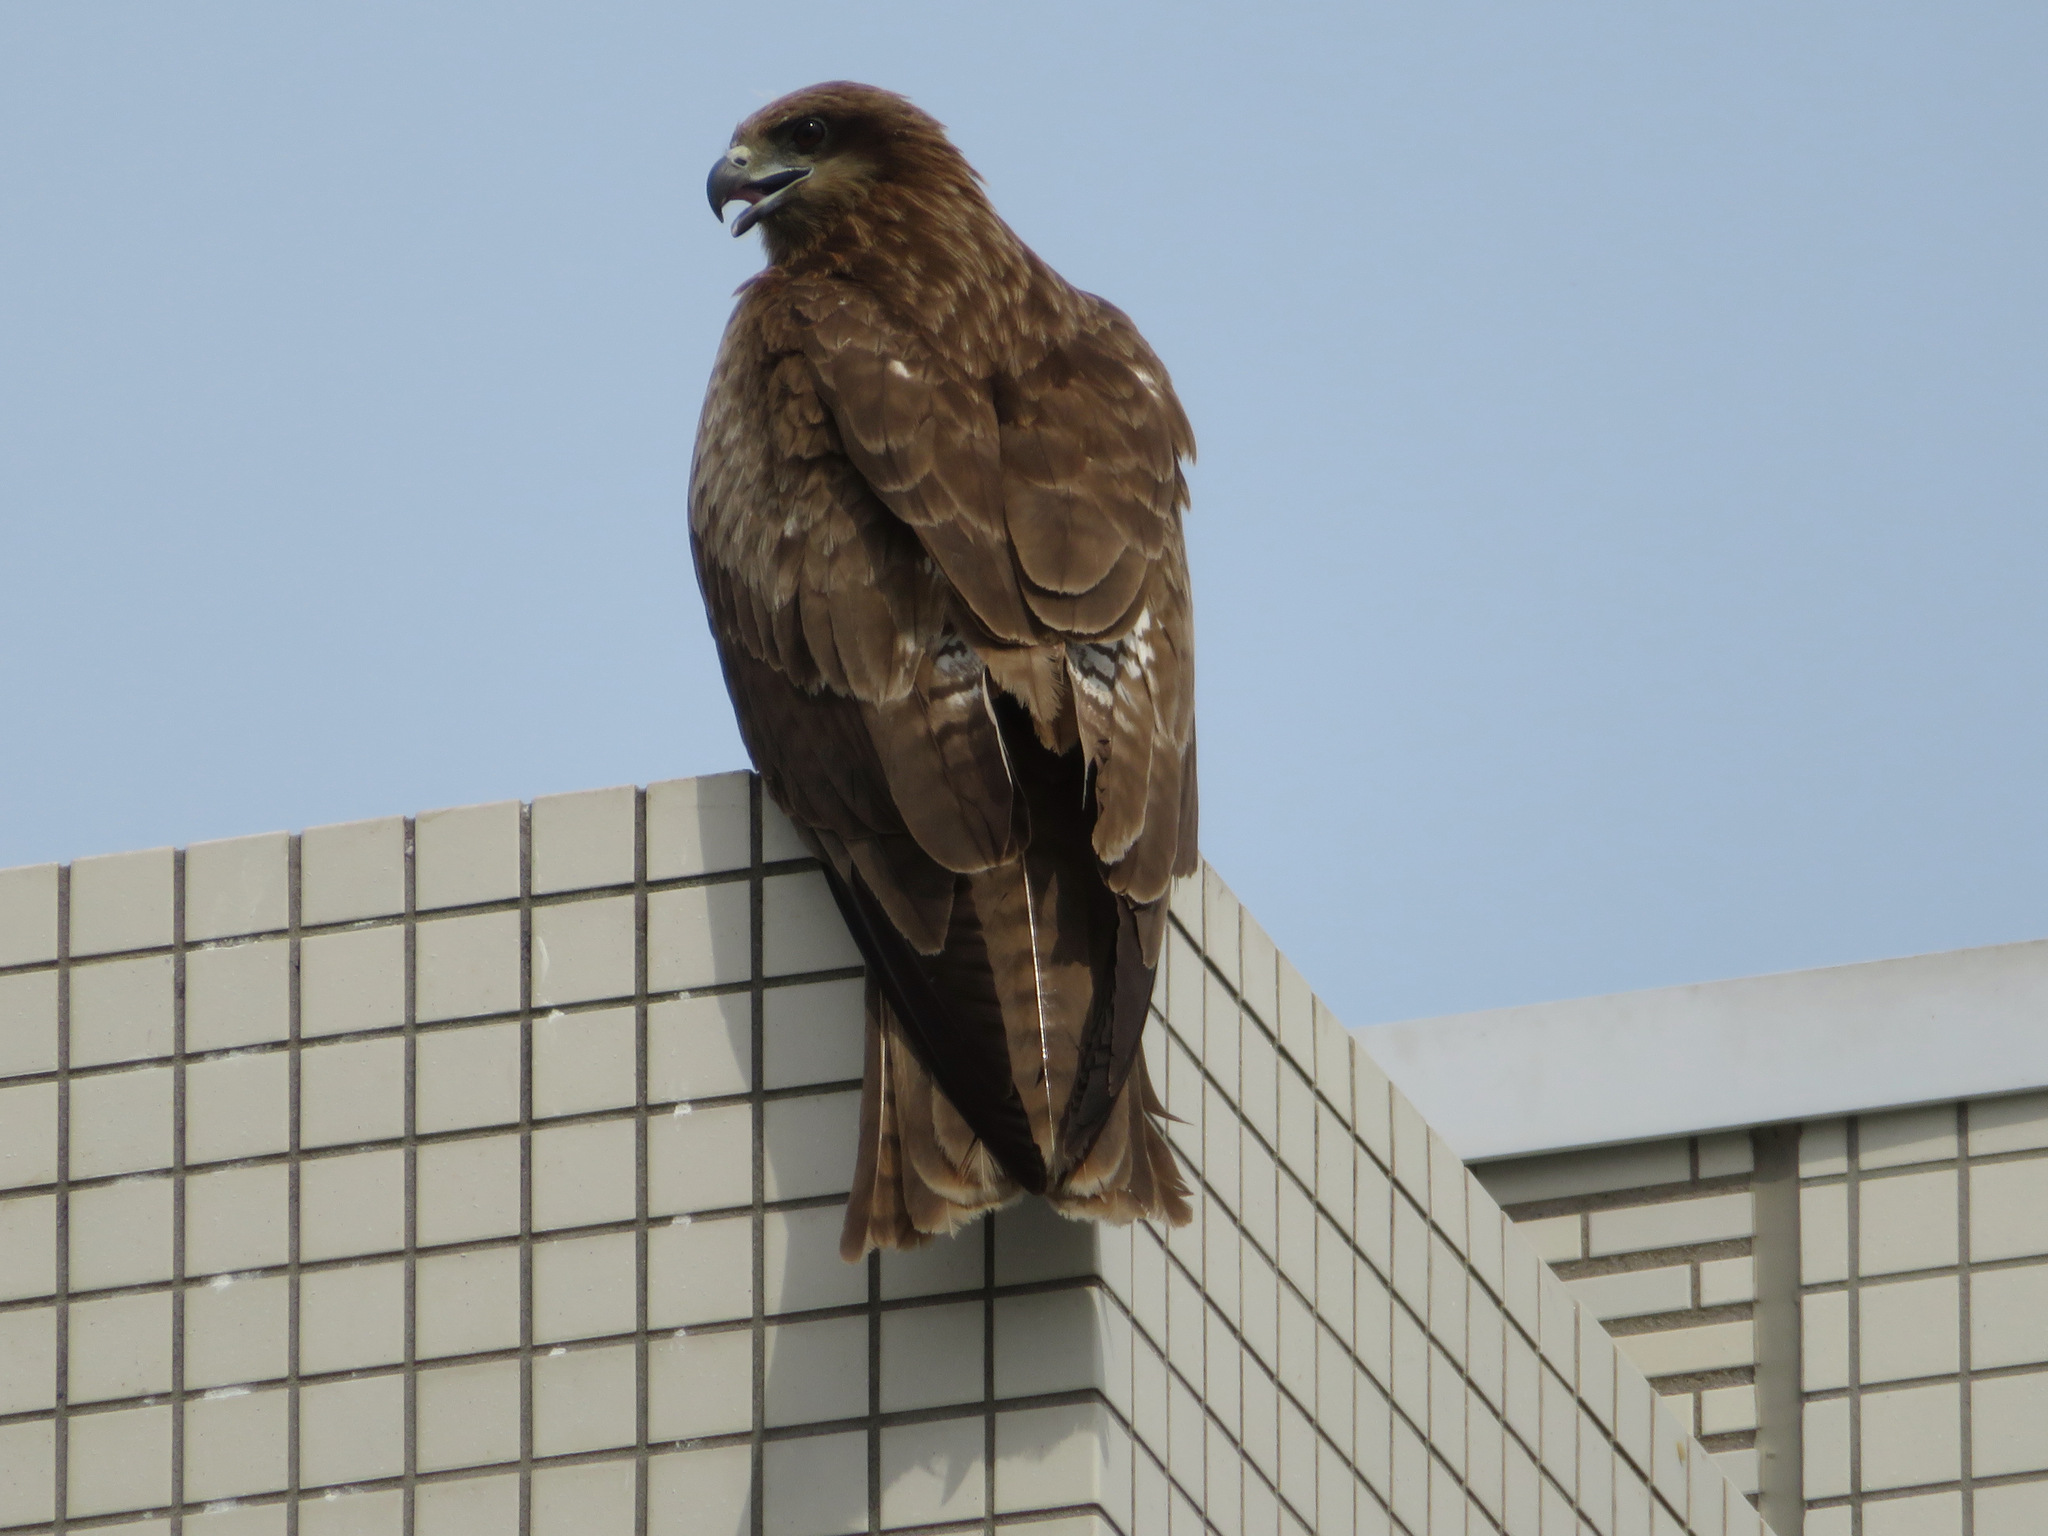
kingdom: Animalia
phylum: Chordata
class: Aves
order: Accipitriformes
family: Accipitridae
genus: Milvus
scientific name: Milvus migrans
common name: Black kite
